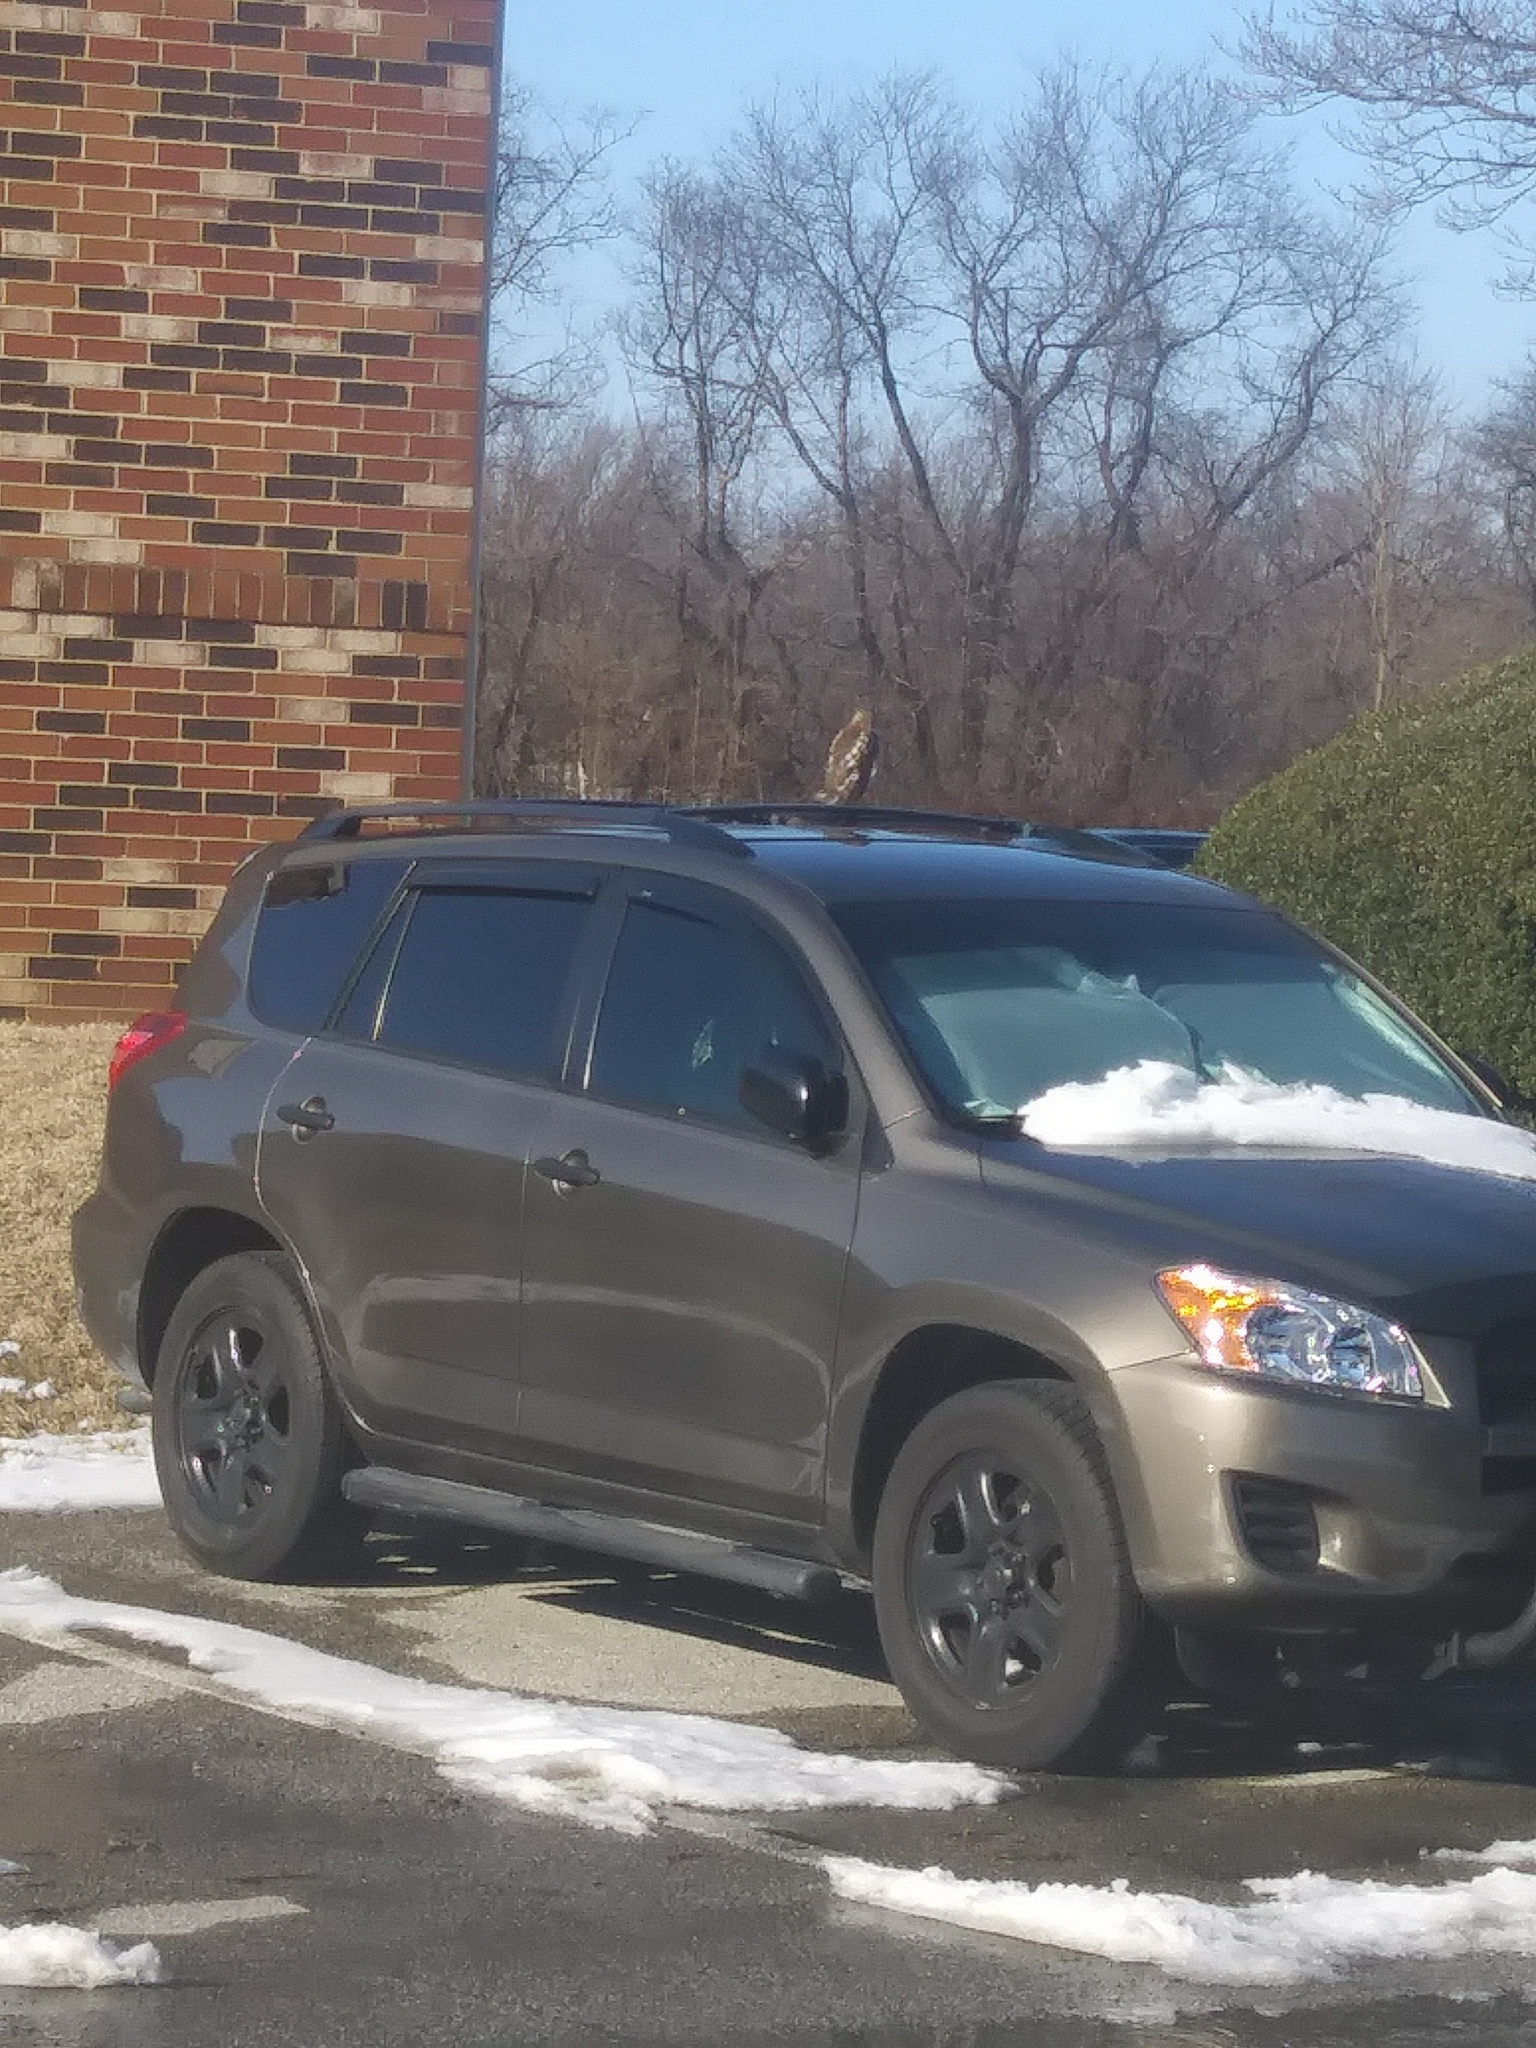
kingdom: Animalia
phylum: Chordata
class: Aves
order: Accipitriformes
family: Accipitridae
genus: Accipiter
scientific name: Accipiter cooperii
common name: Cooper's hawk
